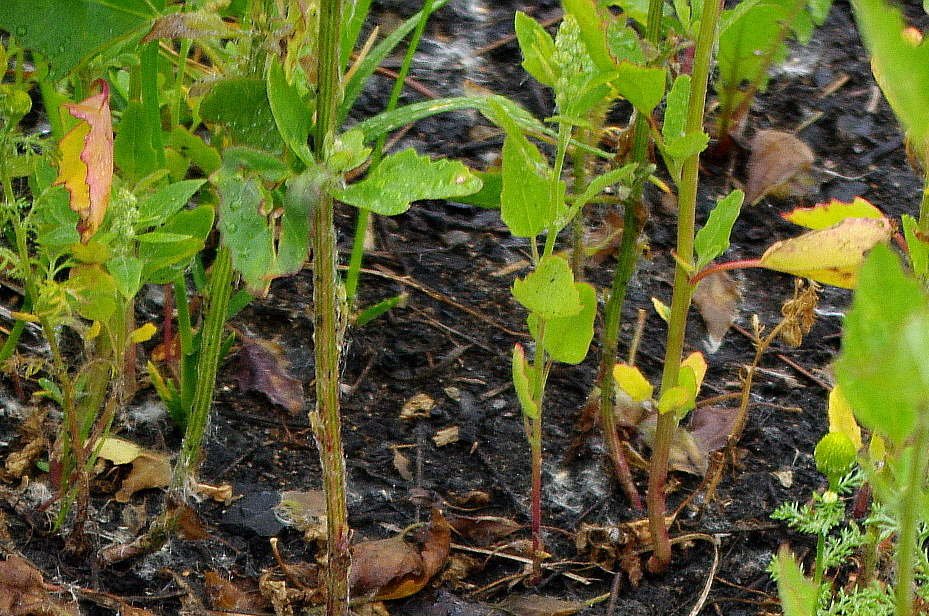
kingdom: Plantae
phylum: Tracheophyta
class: Magnoliopsida
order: Caryophyllales
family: Amaranthaceae
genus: Chenopodium
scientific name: Chenopodium album
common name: Fat-hen
